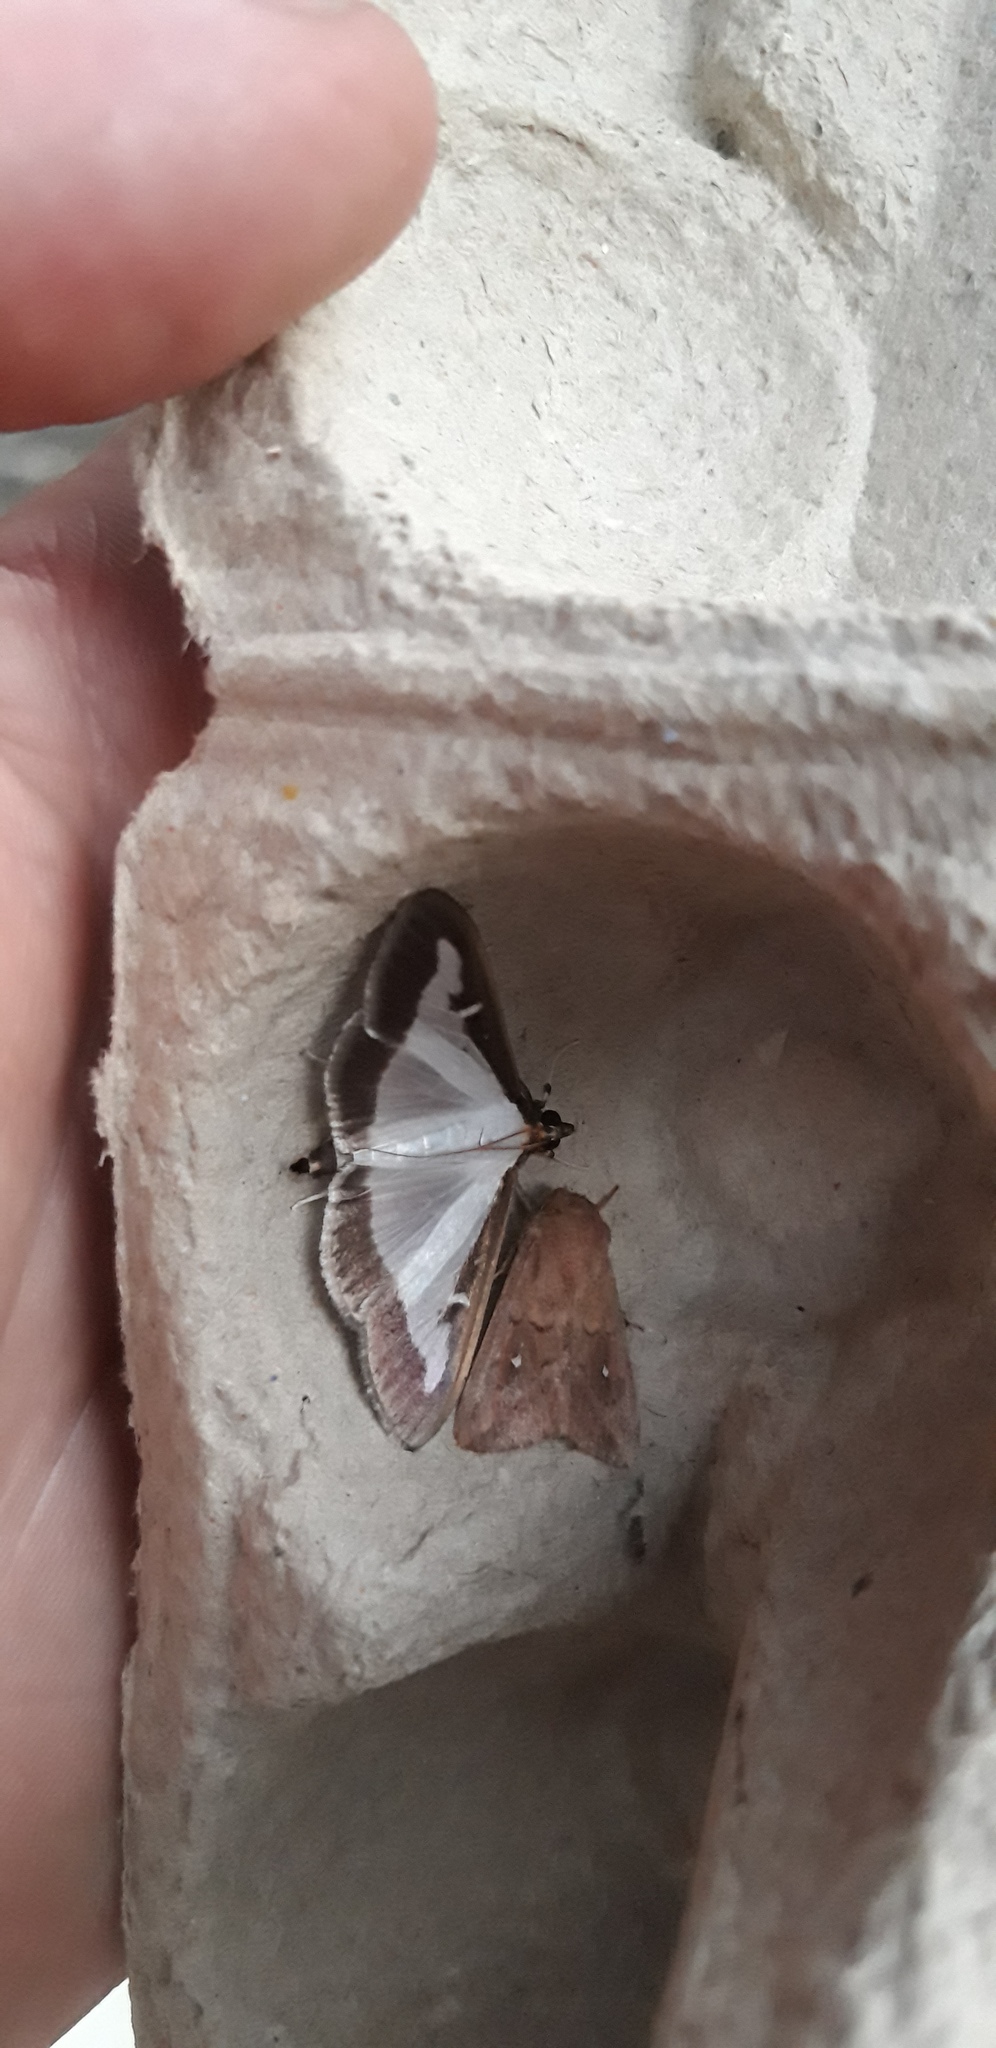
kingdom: Animalia
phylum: Arthropoda
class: Insecta
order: Lepidoptera
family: Crambidae
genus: Cydalima
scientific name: Cydalima perspectalis
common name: Box tree moth
